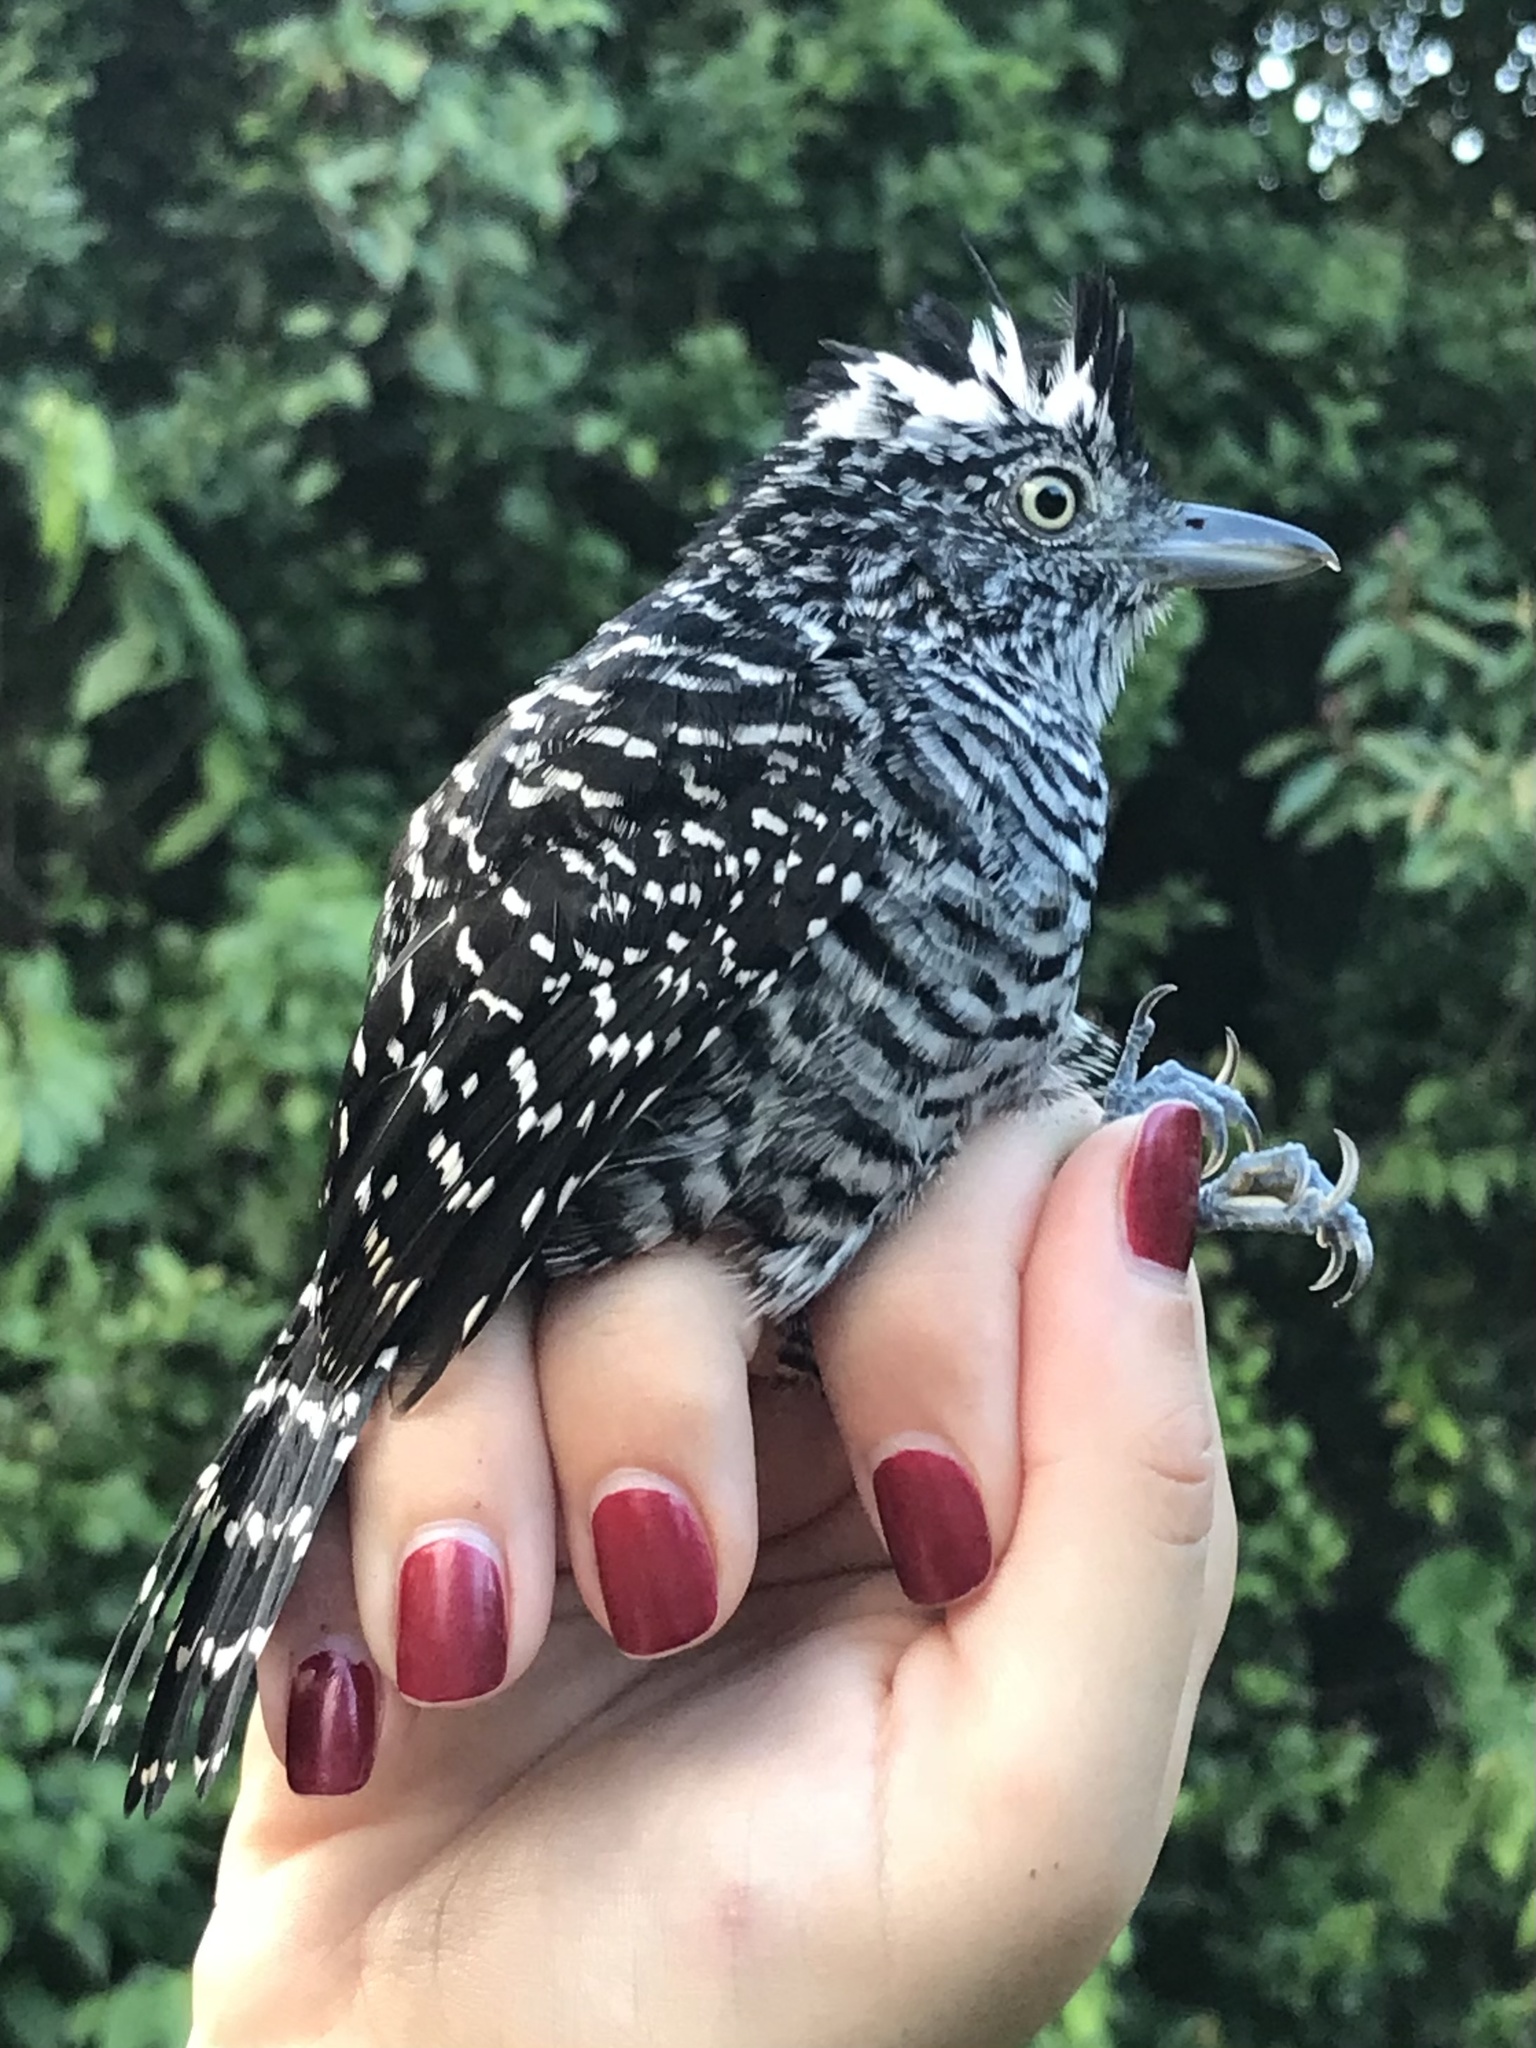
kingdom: Animalia
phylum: Chordata
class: Aves
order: Passeriformes
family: Thamnophilidae
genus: Thamnophilus
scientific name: Thamnophilus doliatus
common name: Barred antshrike
